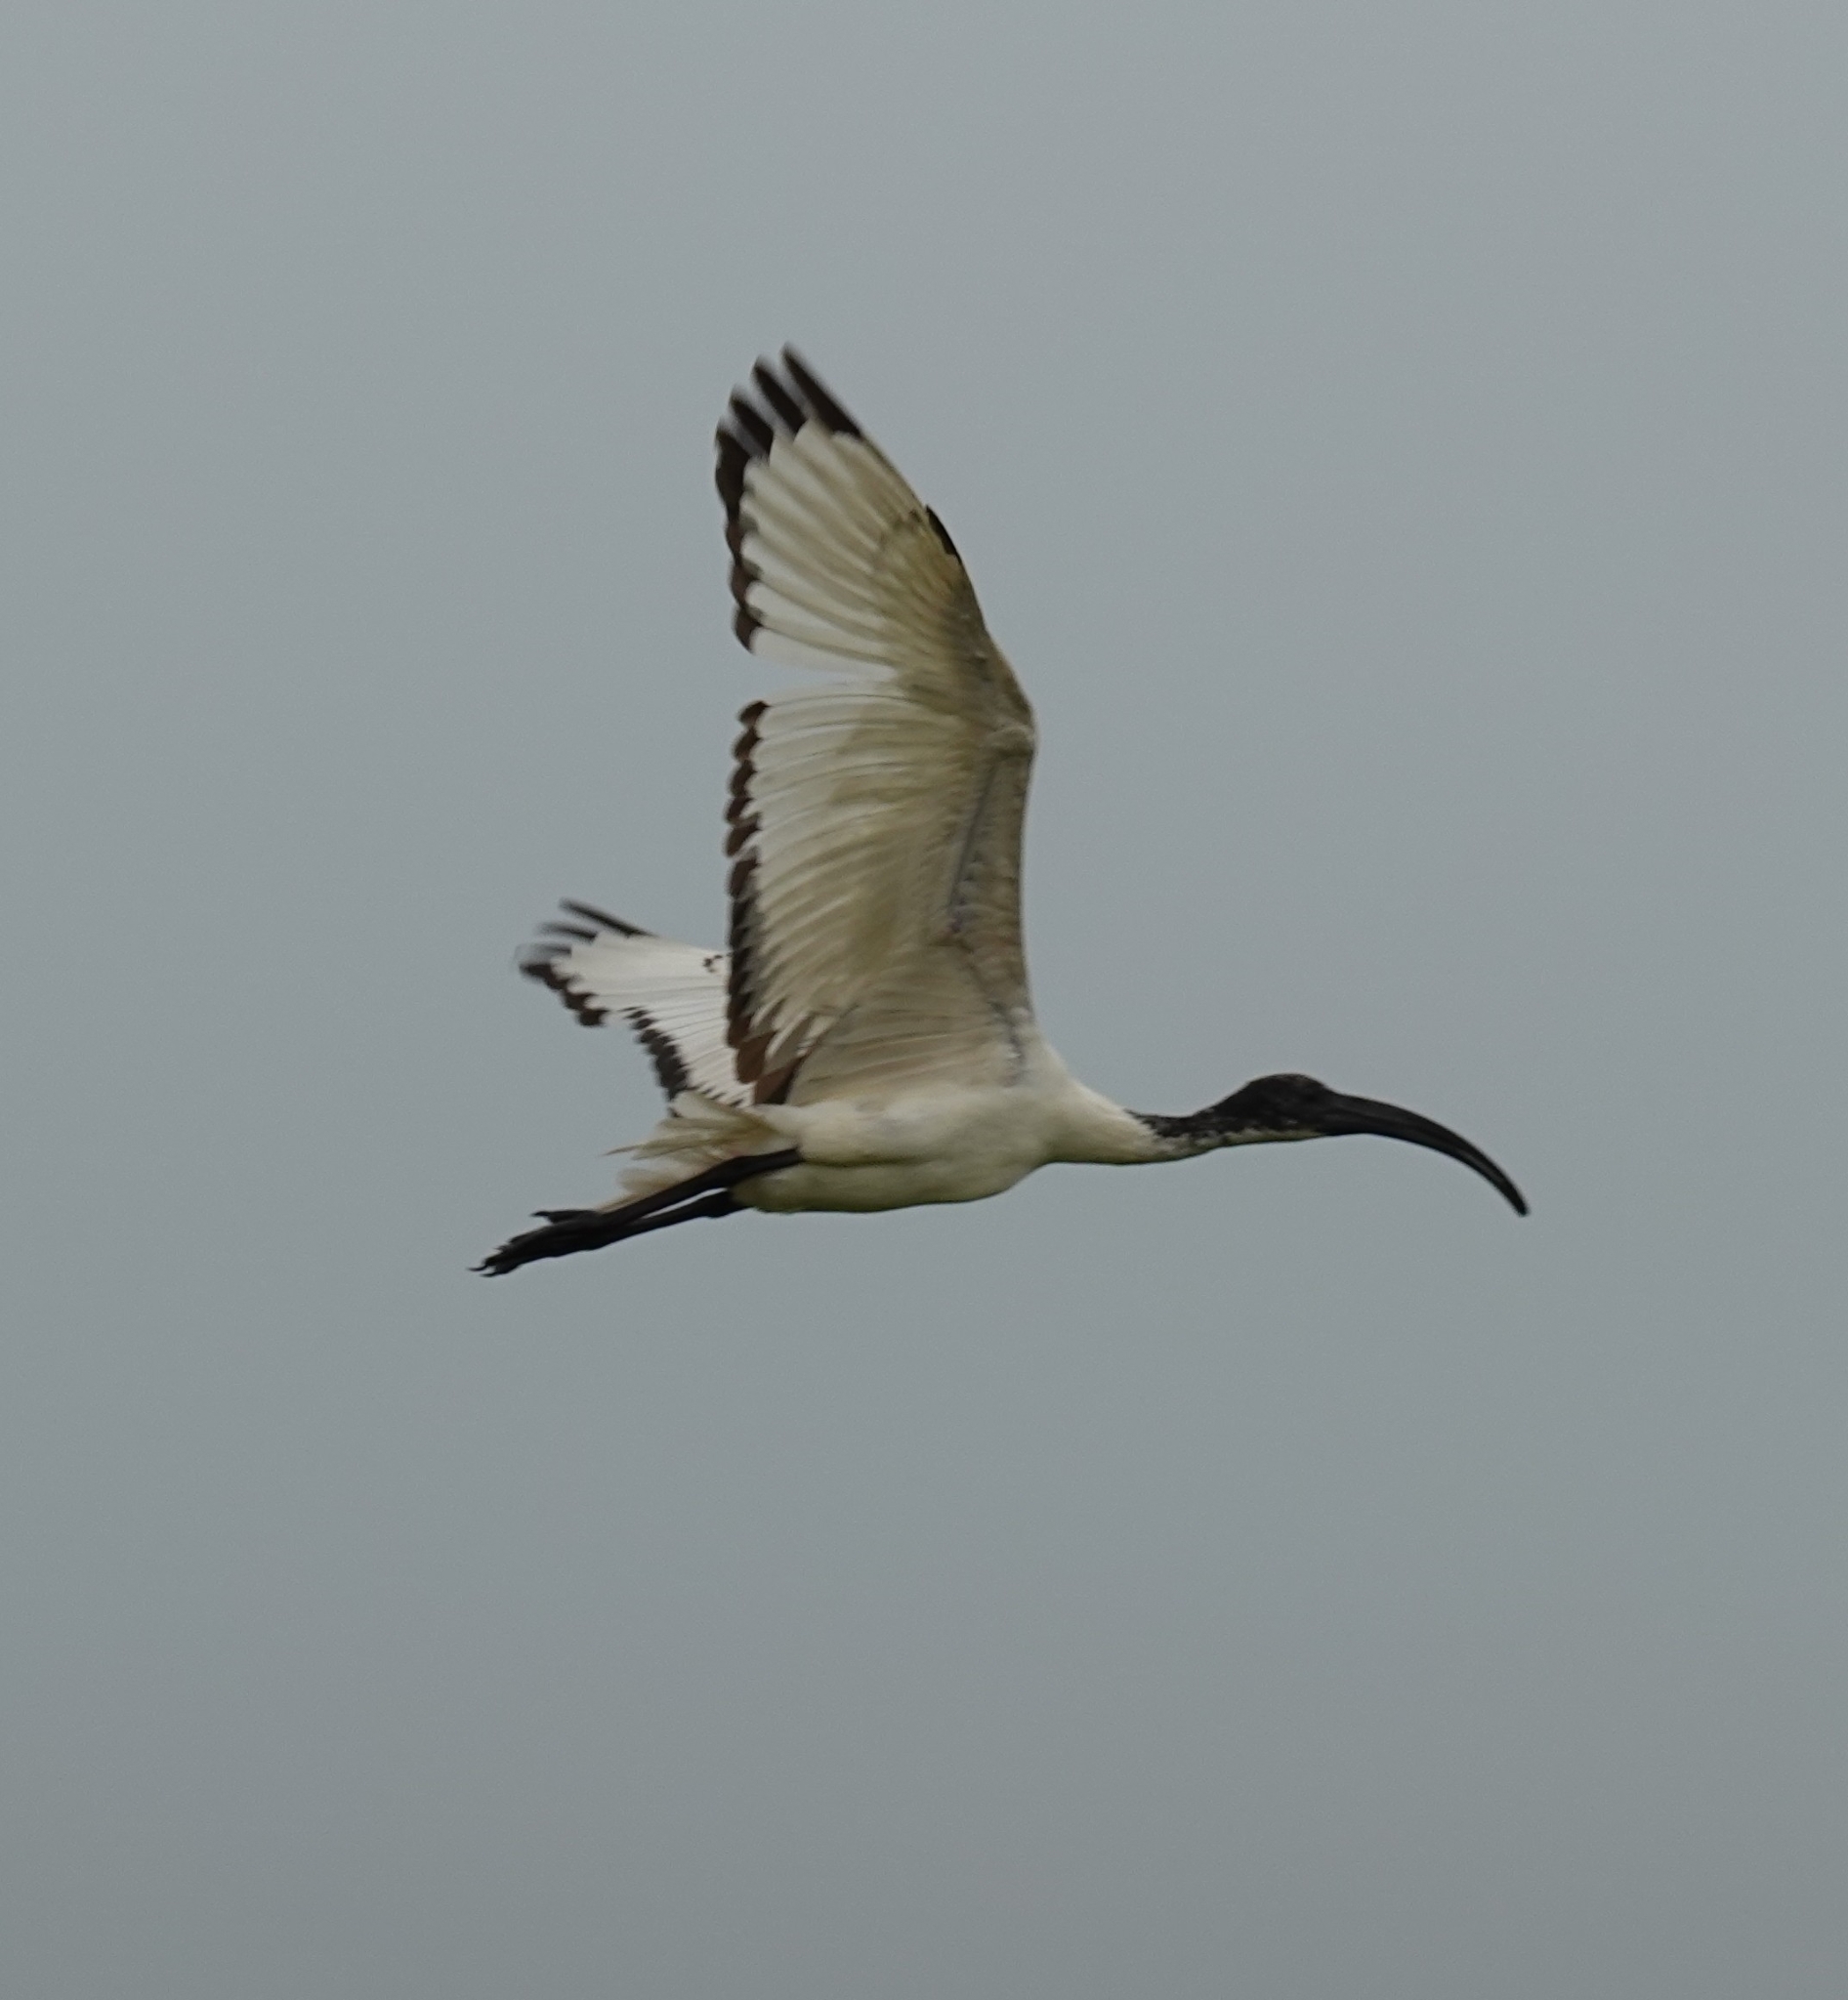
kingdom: Animalia
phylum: Chordata
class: Aves
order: Pelecaniformes
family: Threskiornithidae
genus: Threskiornis
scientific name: Threskiornis aethiopicus
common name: Sacred ibis
